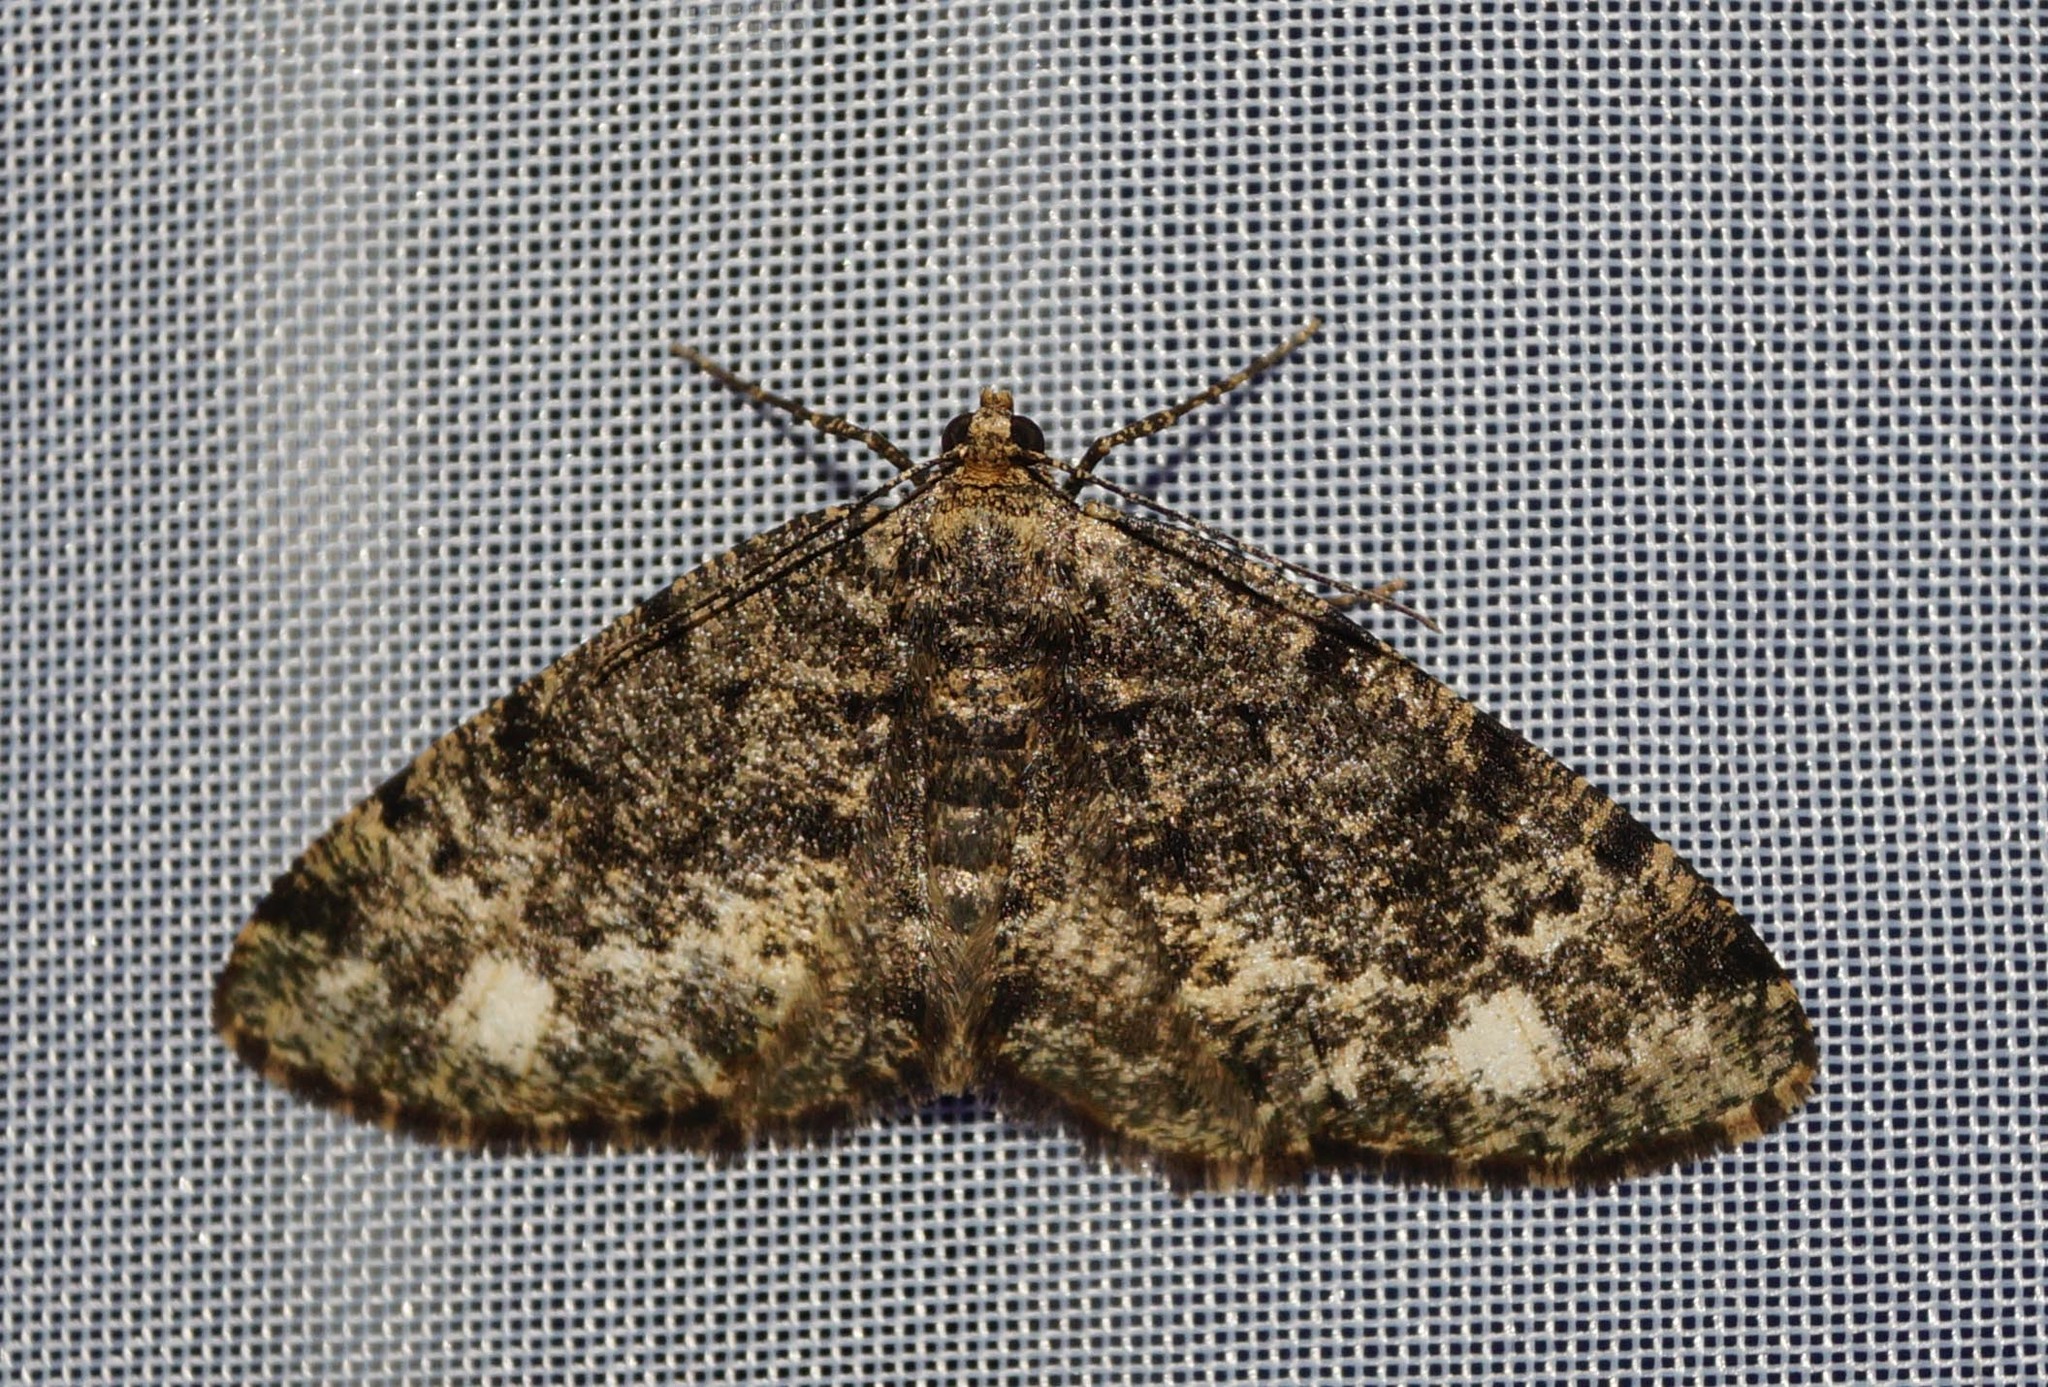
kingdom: Animalia
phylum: Arthropoda
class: Insecta
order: Lepidoptera
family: Geometridae
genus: Parectropis
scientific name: Parectropis similaria
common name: Brindled white-spot
